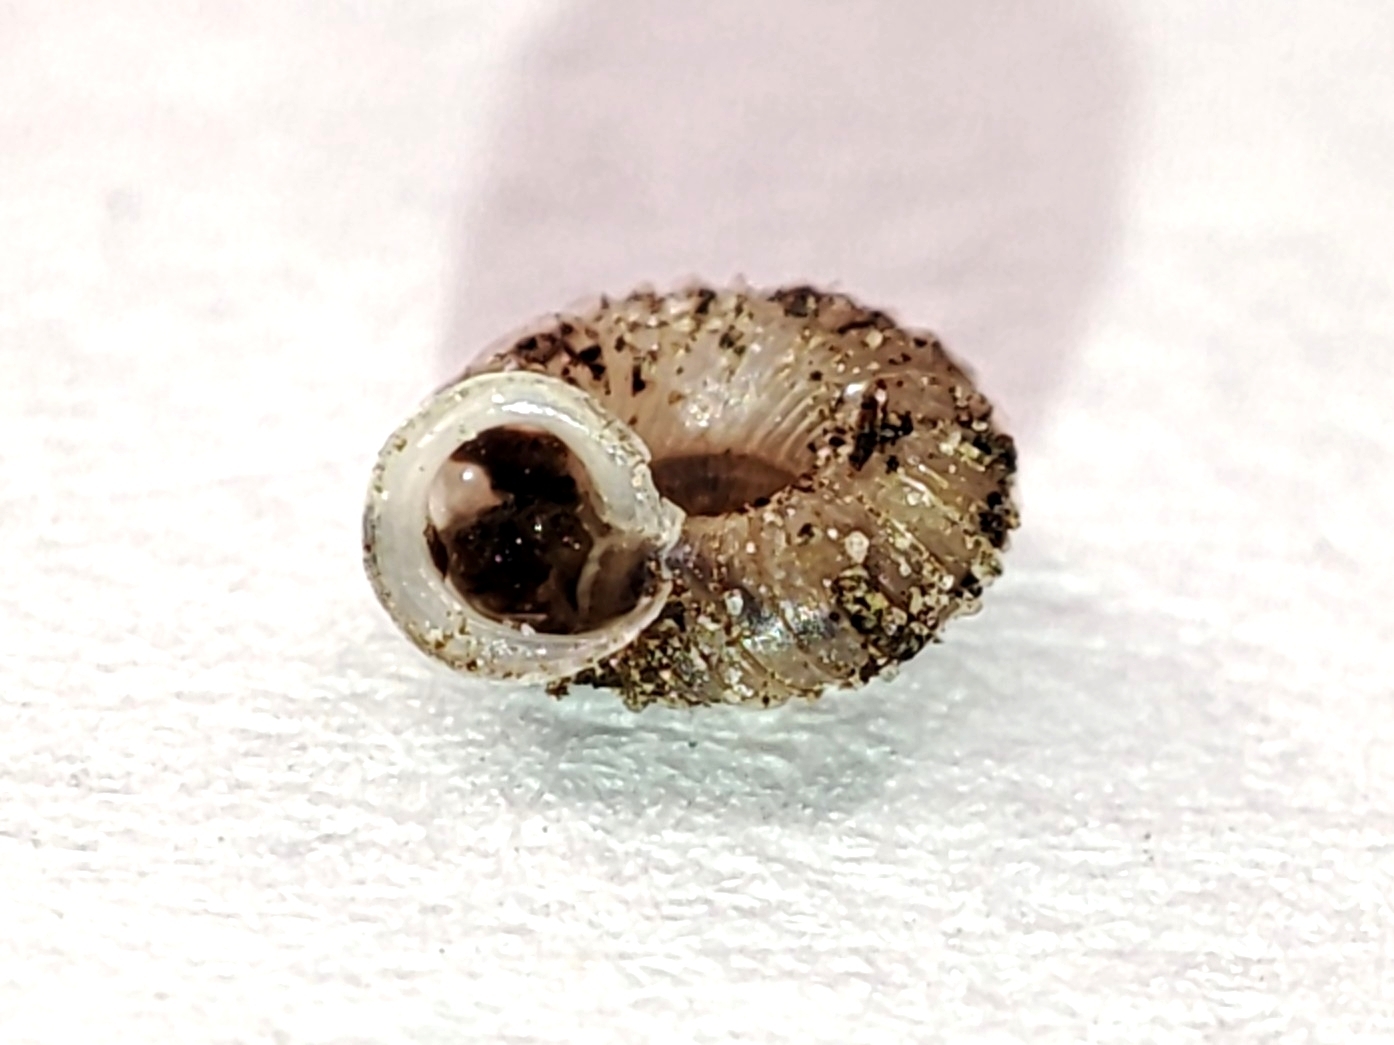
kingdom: Animalia
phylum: Mollusca
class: Gastropoda
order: Stylommatophora
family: Valloniidae
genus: Vallonia
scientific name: Vallonia costata
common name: Ribbed grass snail
